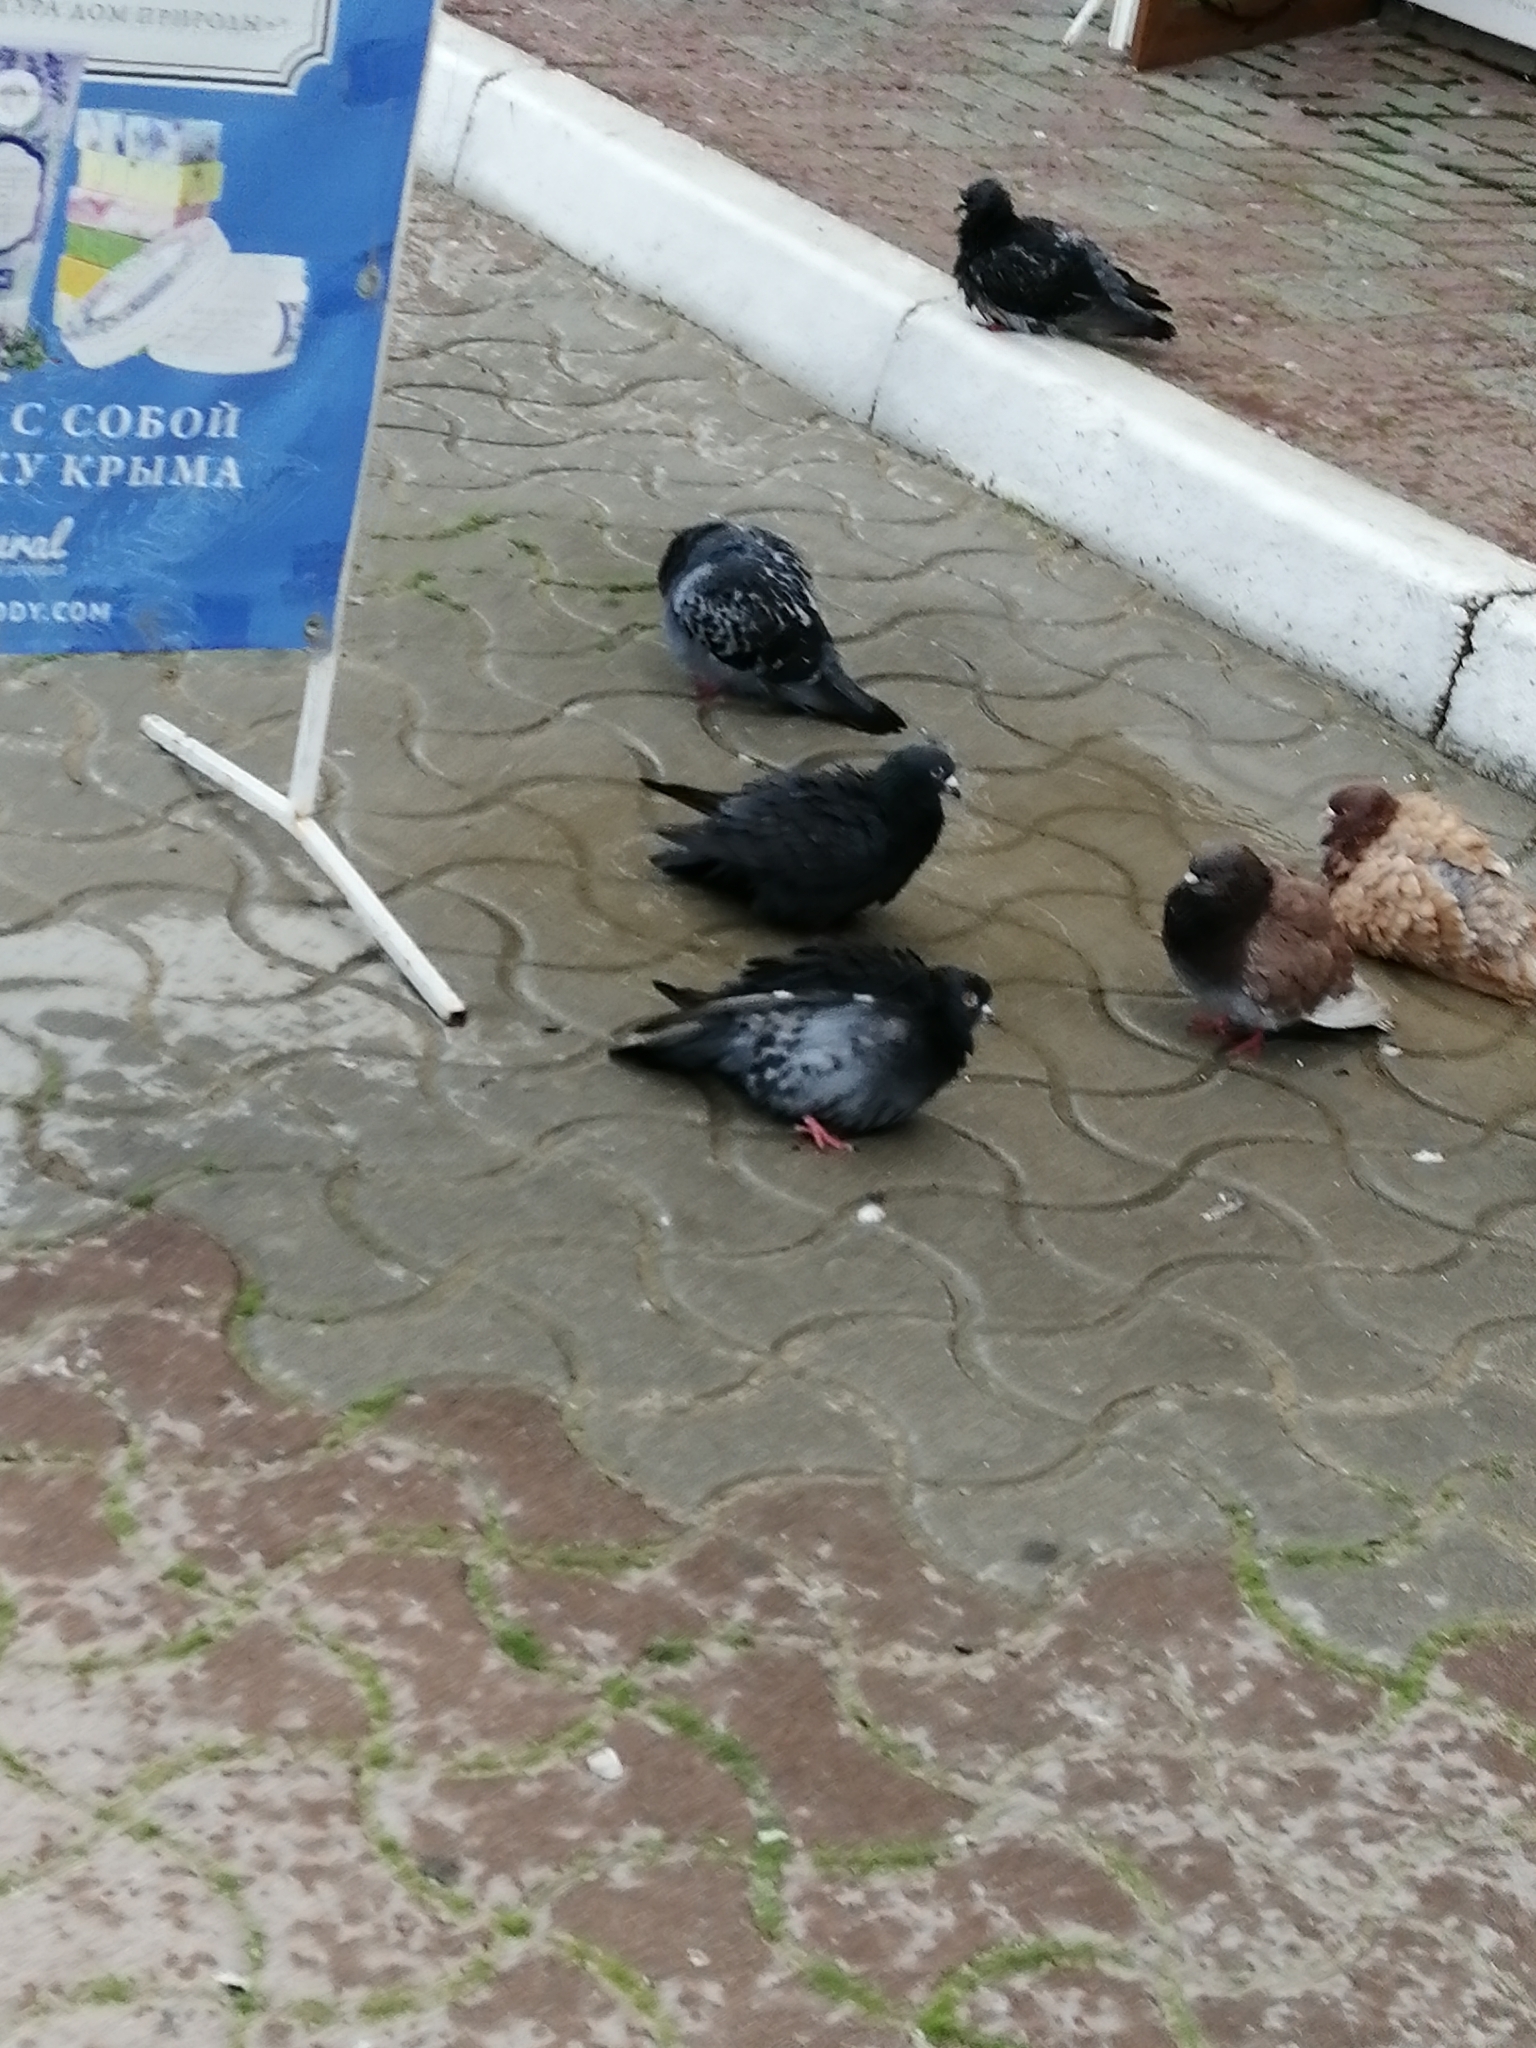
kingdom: Animalia
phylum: Chordata
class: Aves
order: Columbiformes
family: Columbidae
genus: Columba
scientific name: Columba livia
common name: Rock pigeon
